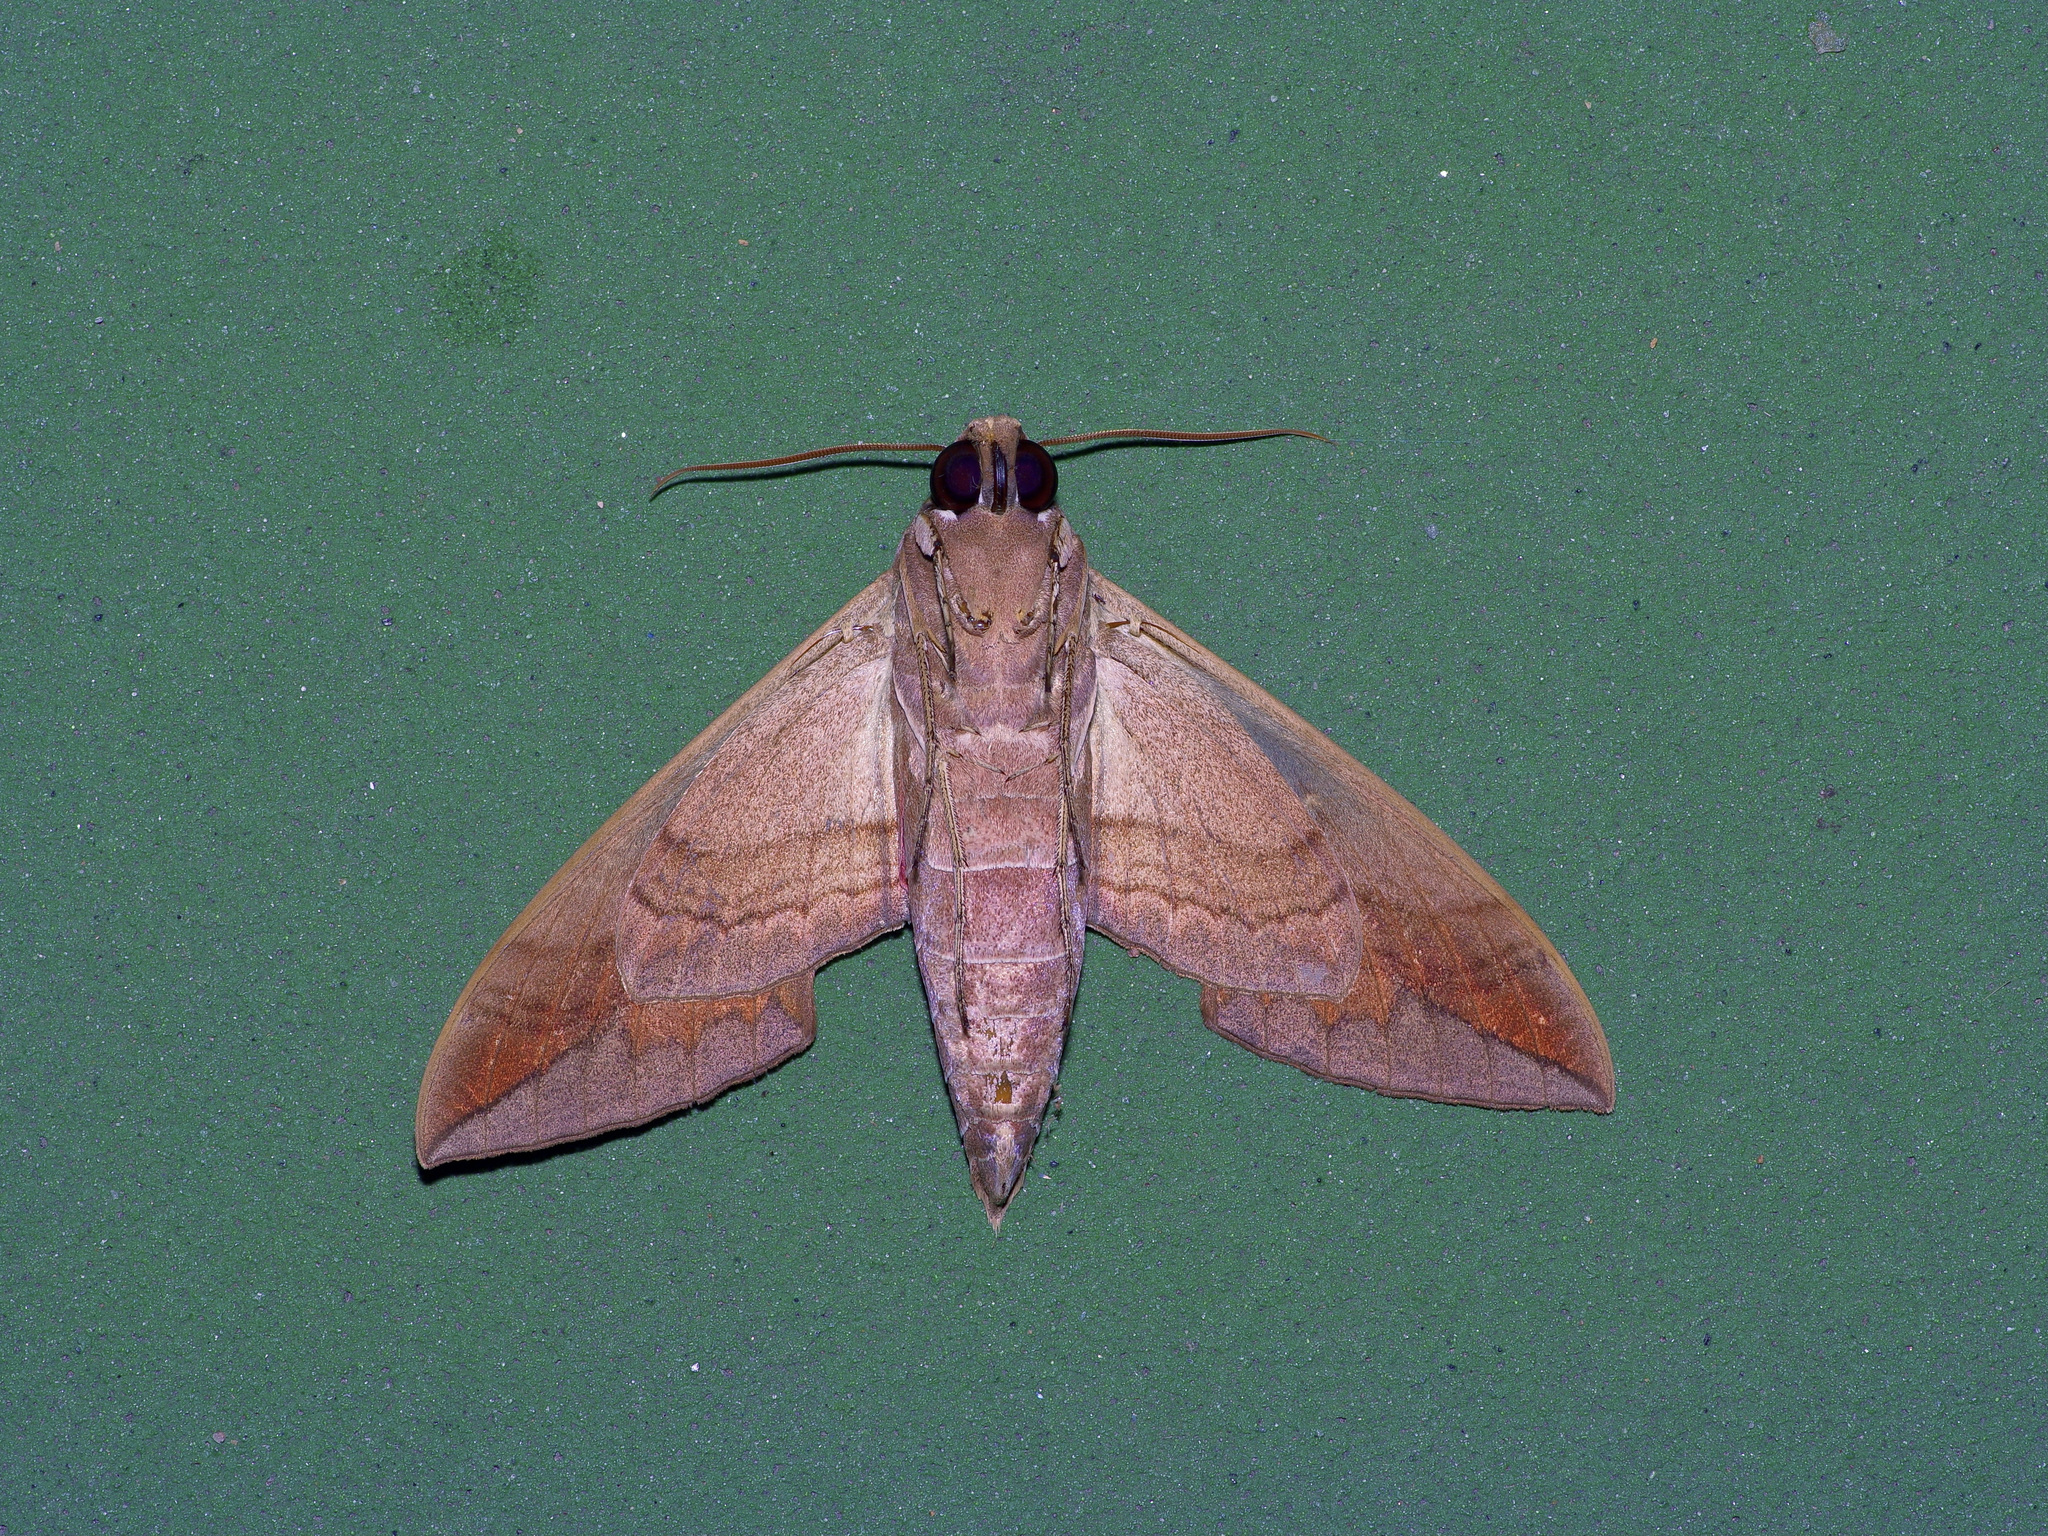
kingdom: Animalia
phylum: Arthropoda
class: Insecta
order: Lepidoptera
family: Sphingidae
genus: Eumorpha
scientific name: Eumorpha vitis
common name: Vine sphinx
